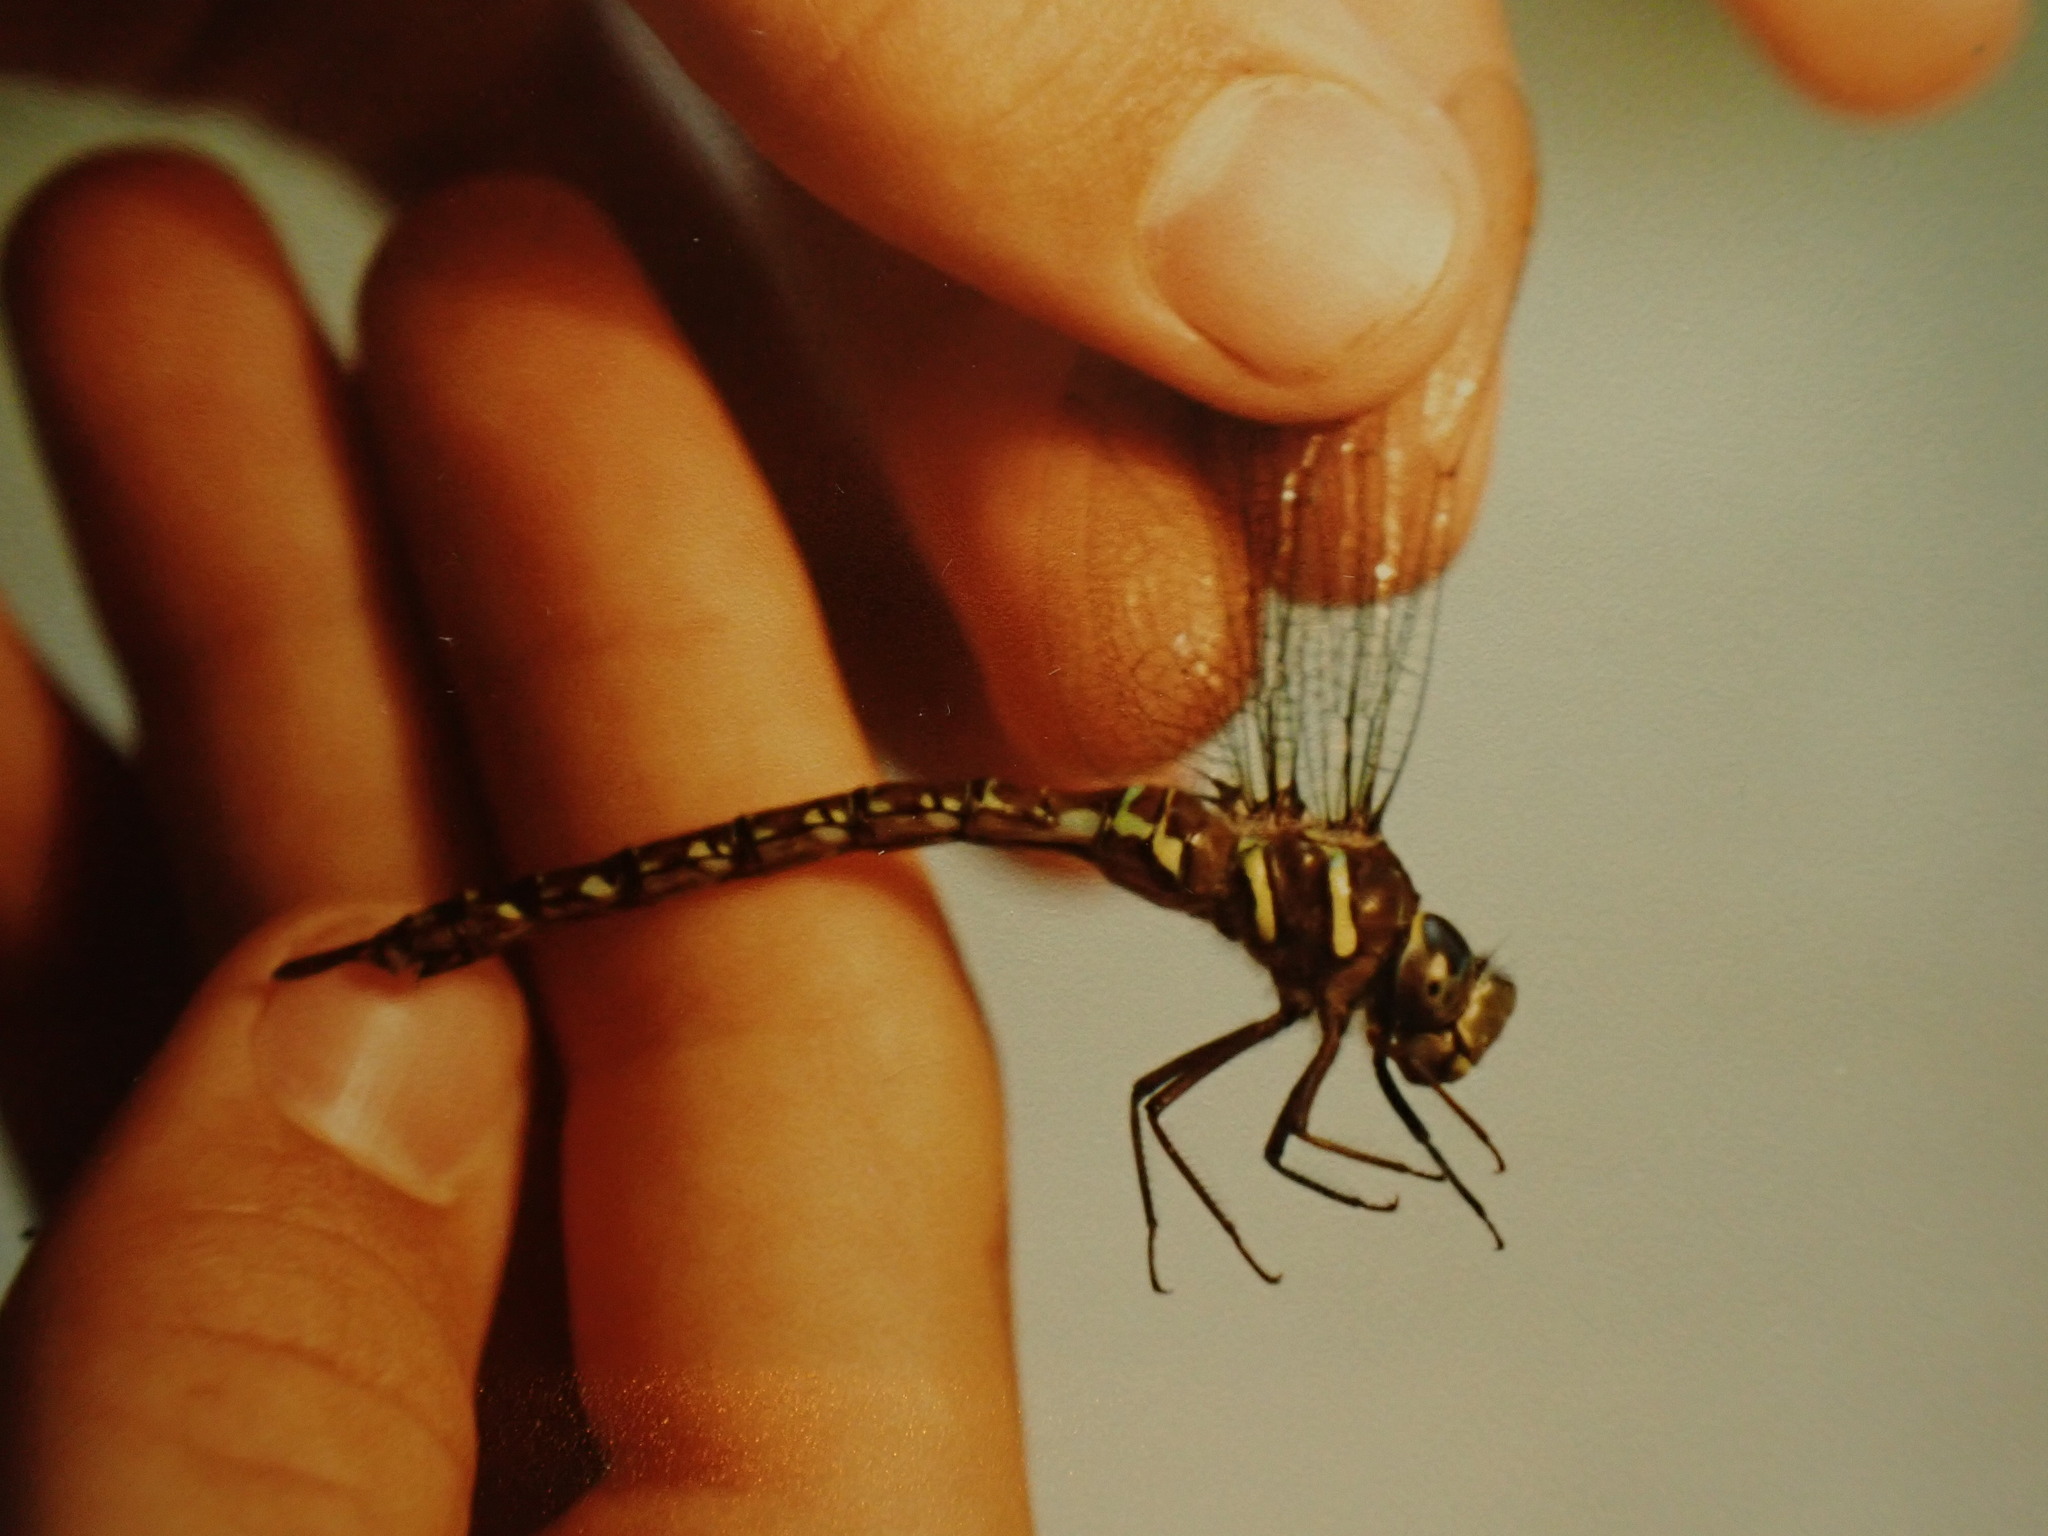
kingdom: Animalia
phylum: Arthropoda
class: Insecta
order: Odonata
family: Aeshnidae
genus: Aeshna
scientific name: Aeshna umbrosa
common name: Shadow darner
